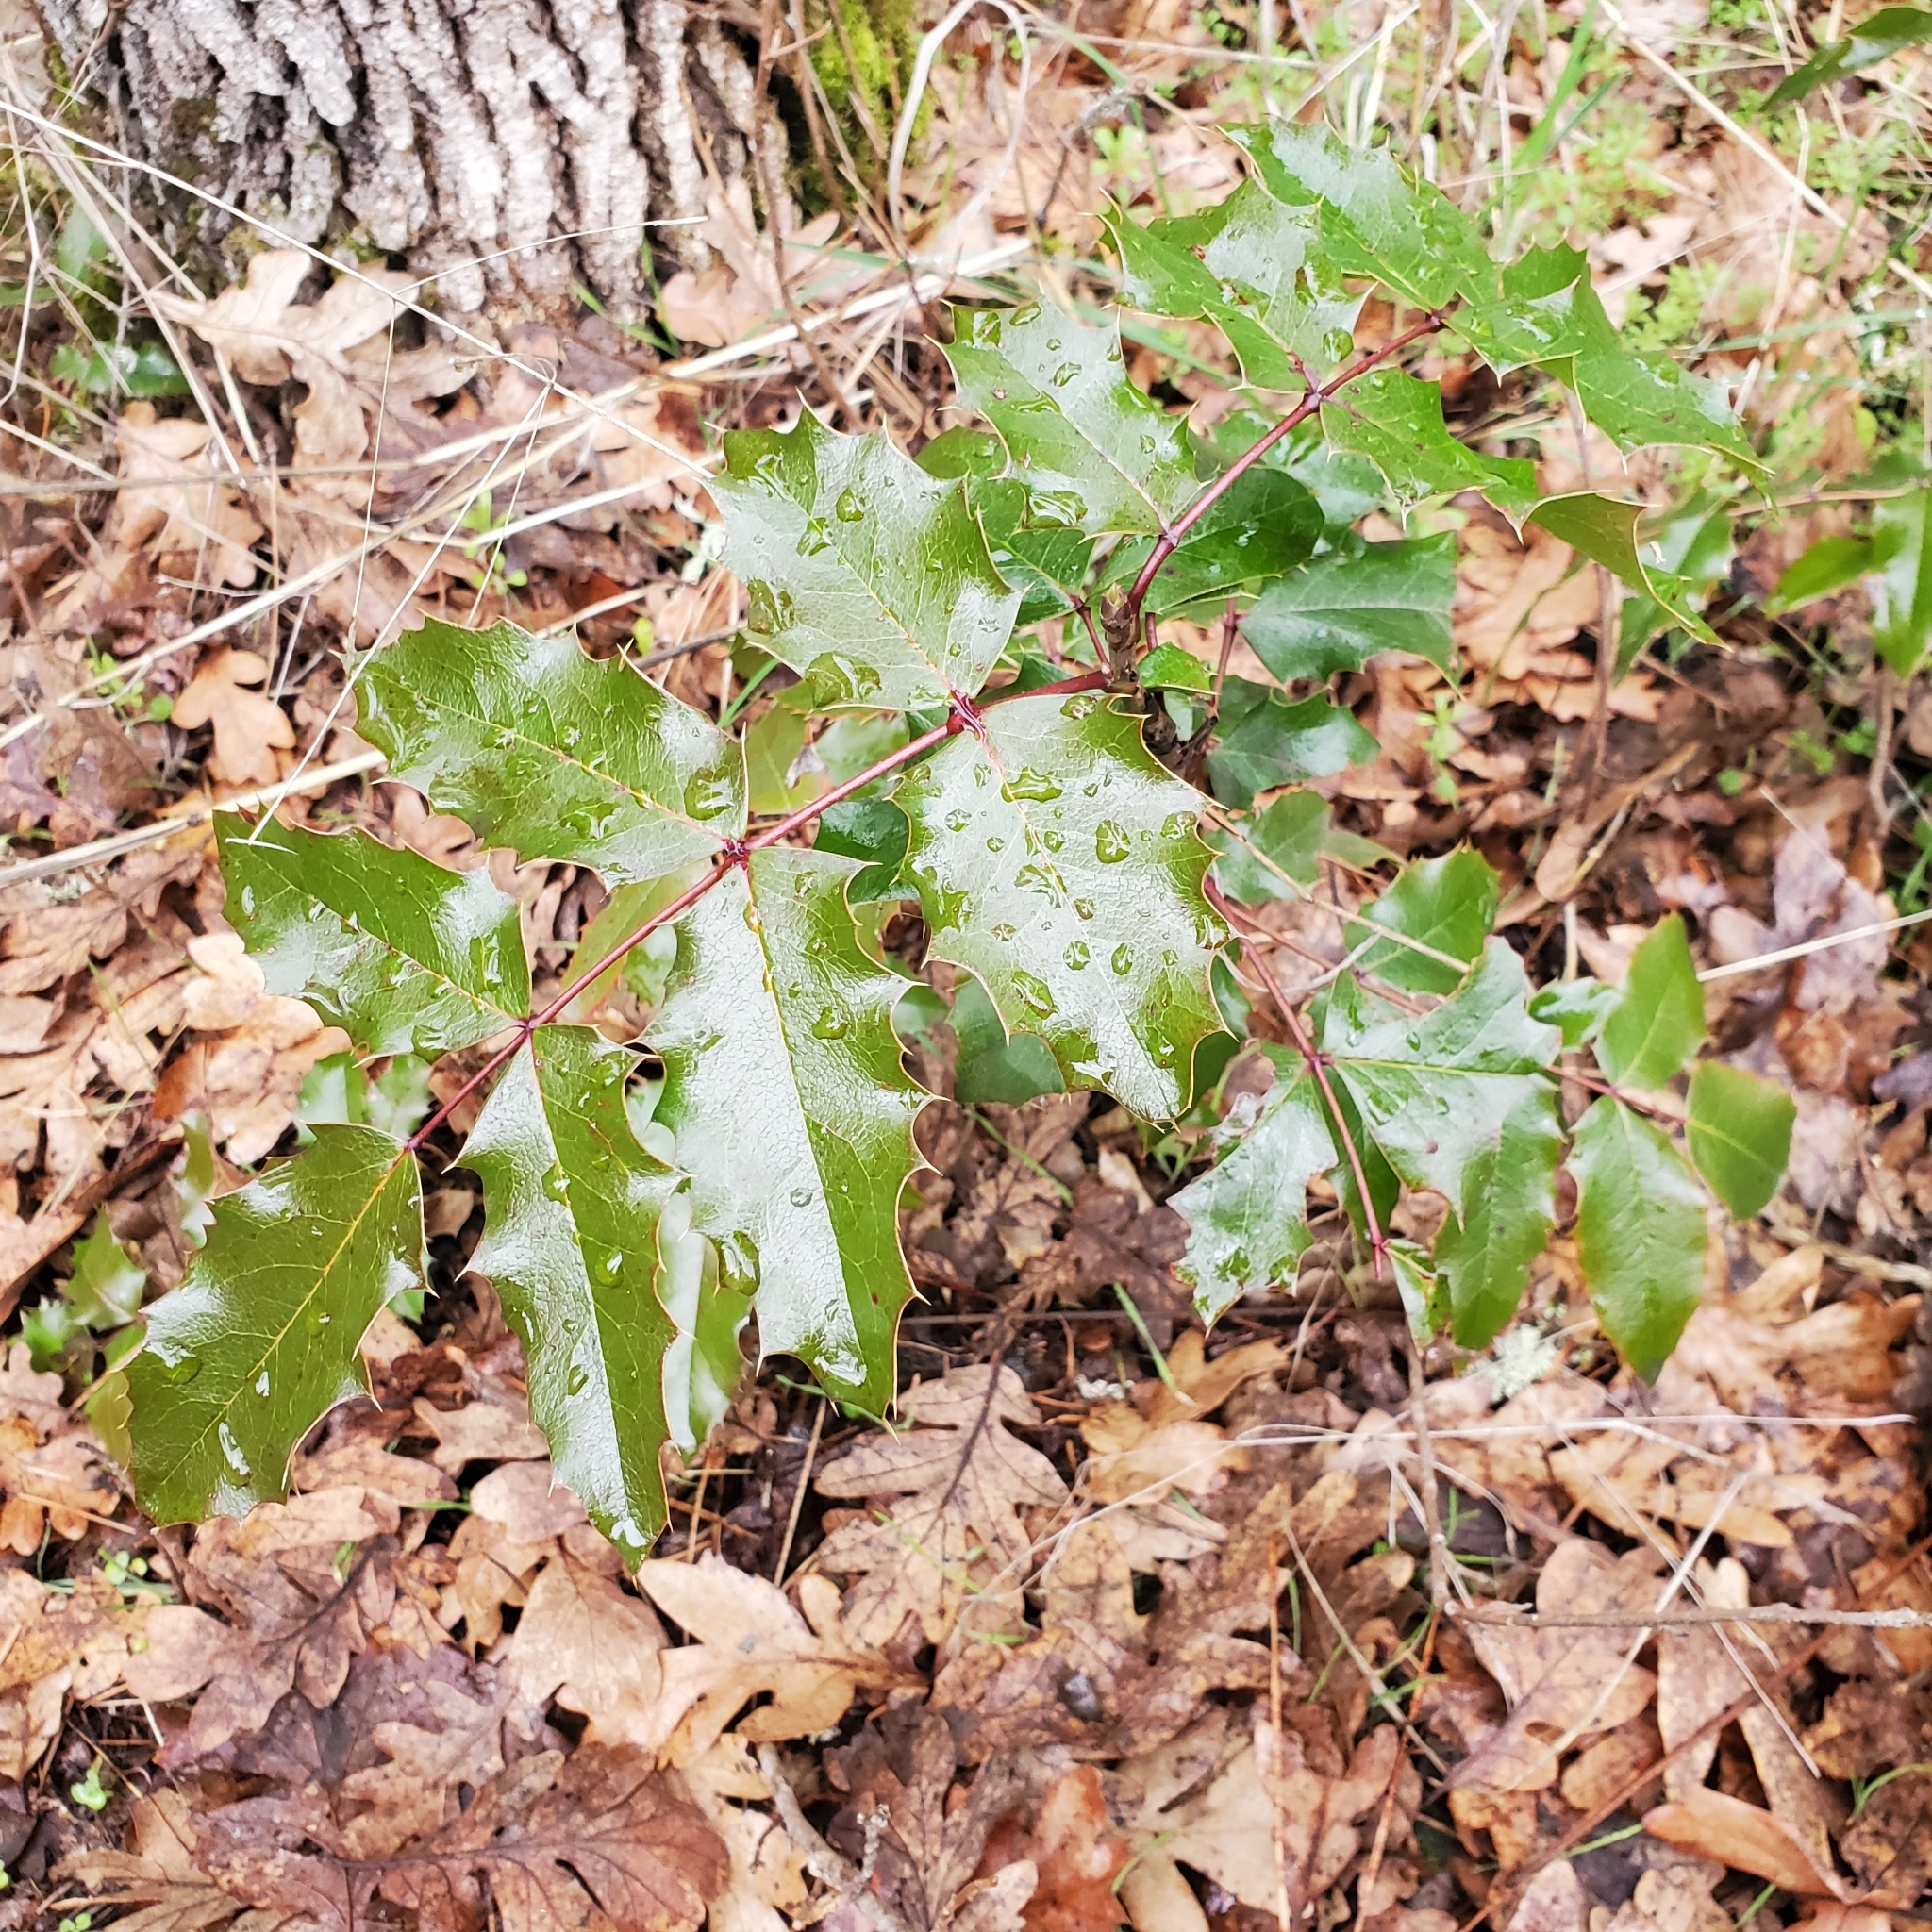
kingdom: Plantae
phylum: Tracheophyta
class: Magnoliopsida
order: Ranunculales
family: Berberidaceae
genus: Mahonia
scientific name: Mahonia aquifolium
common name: Oregon-grape
